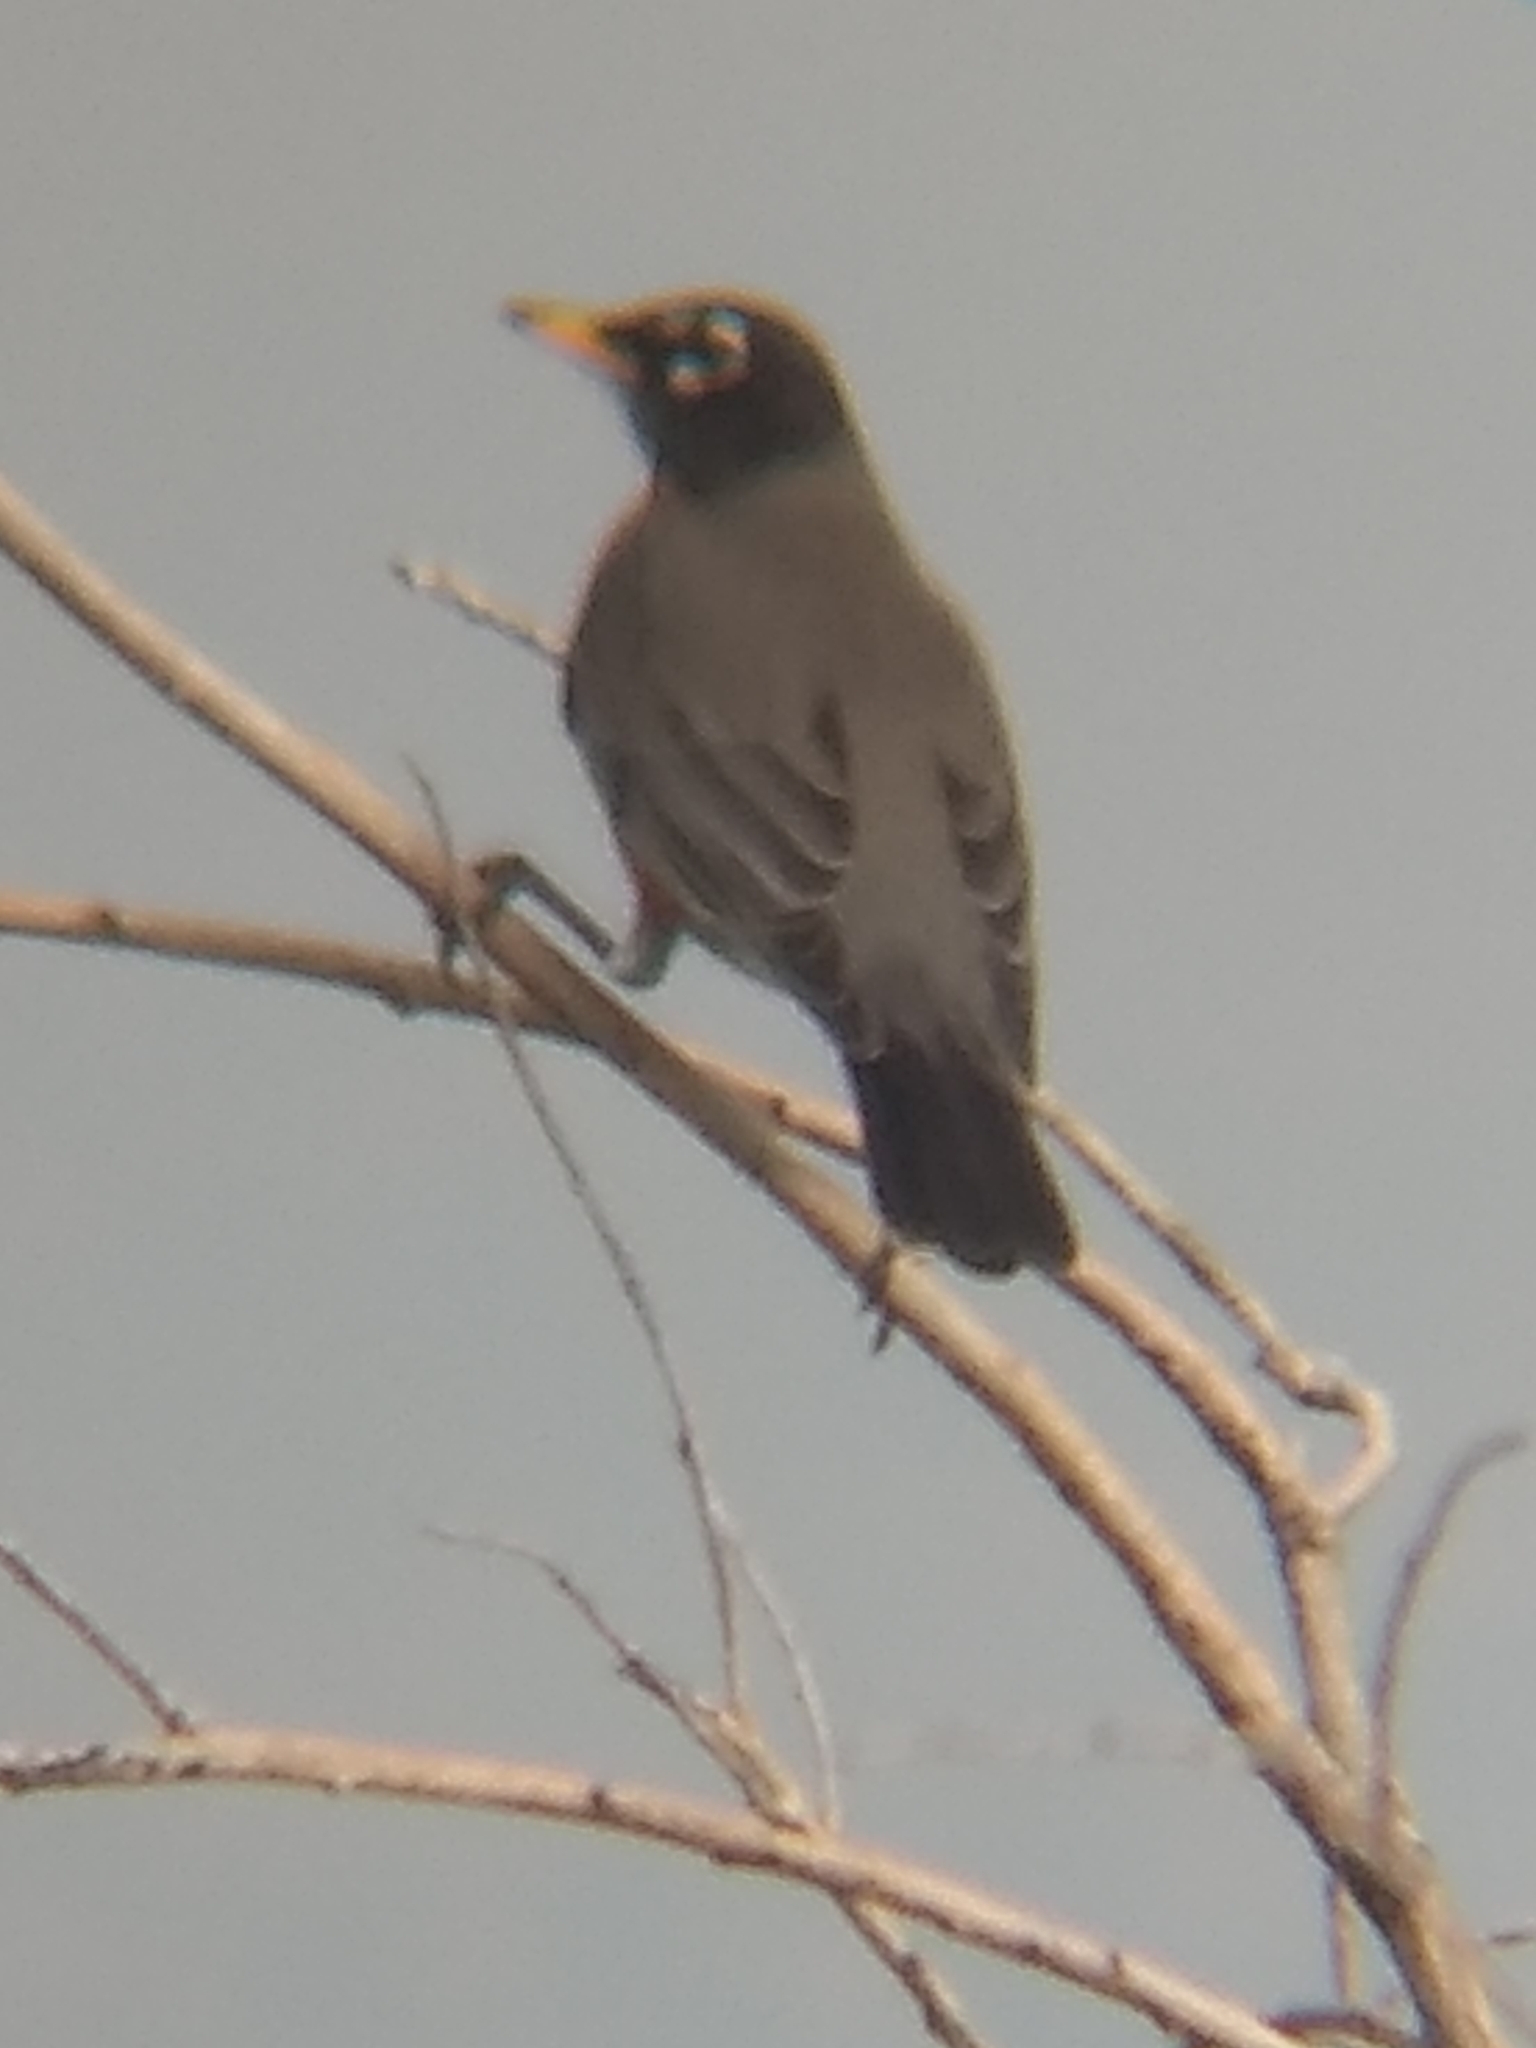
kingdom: Animalia
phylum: Chordata
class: Aves
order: Passeriformes
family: Turdidae
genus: Turdus
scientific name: Turdus migratorius
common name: American robin
